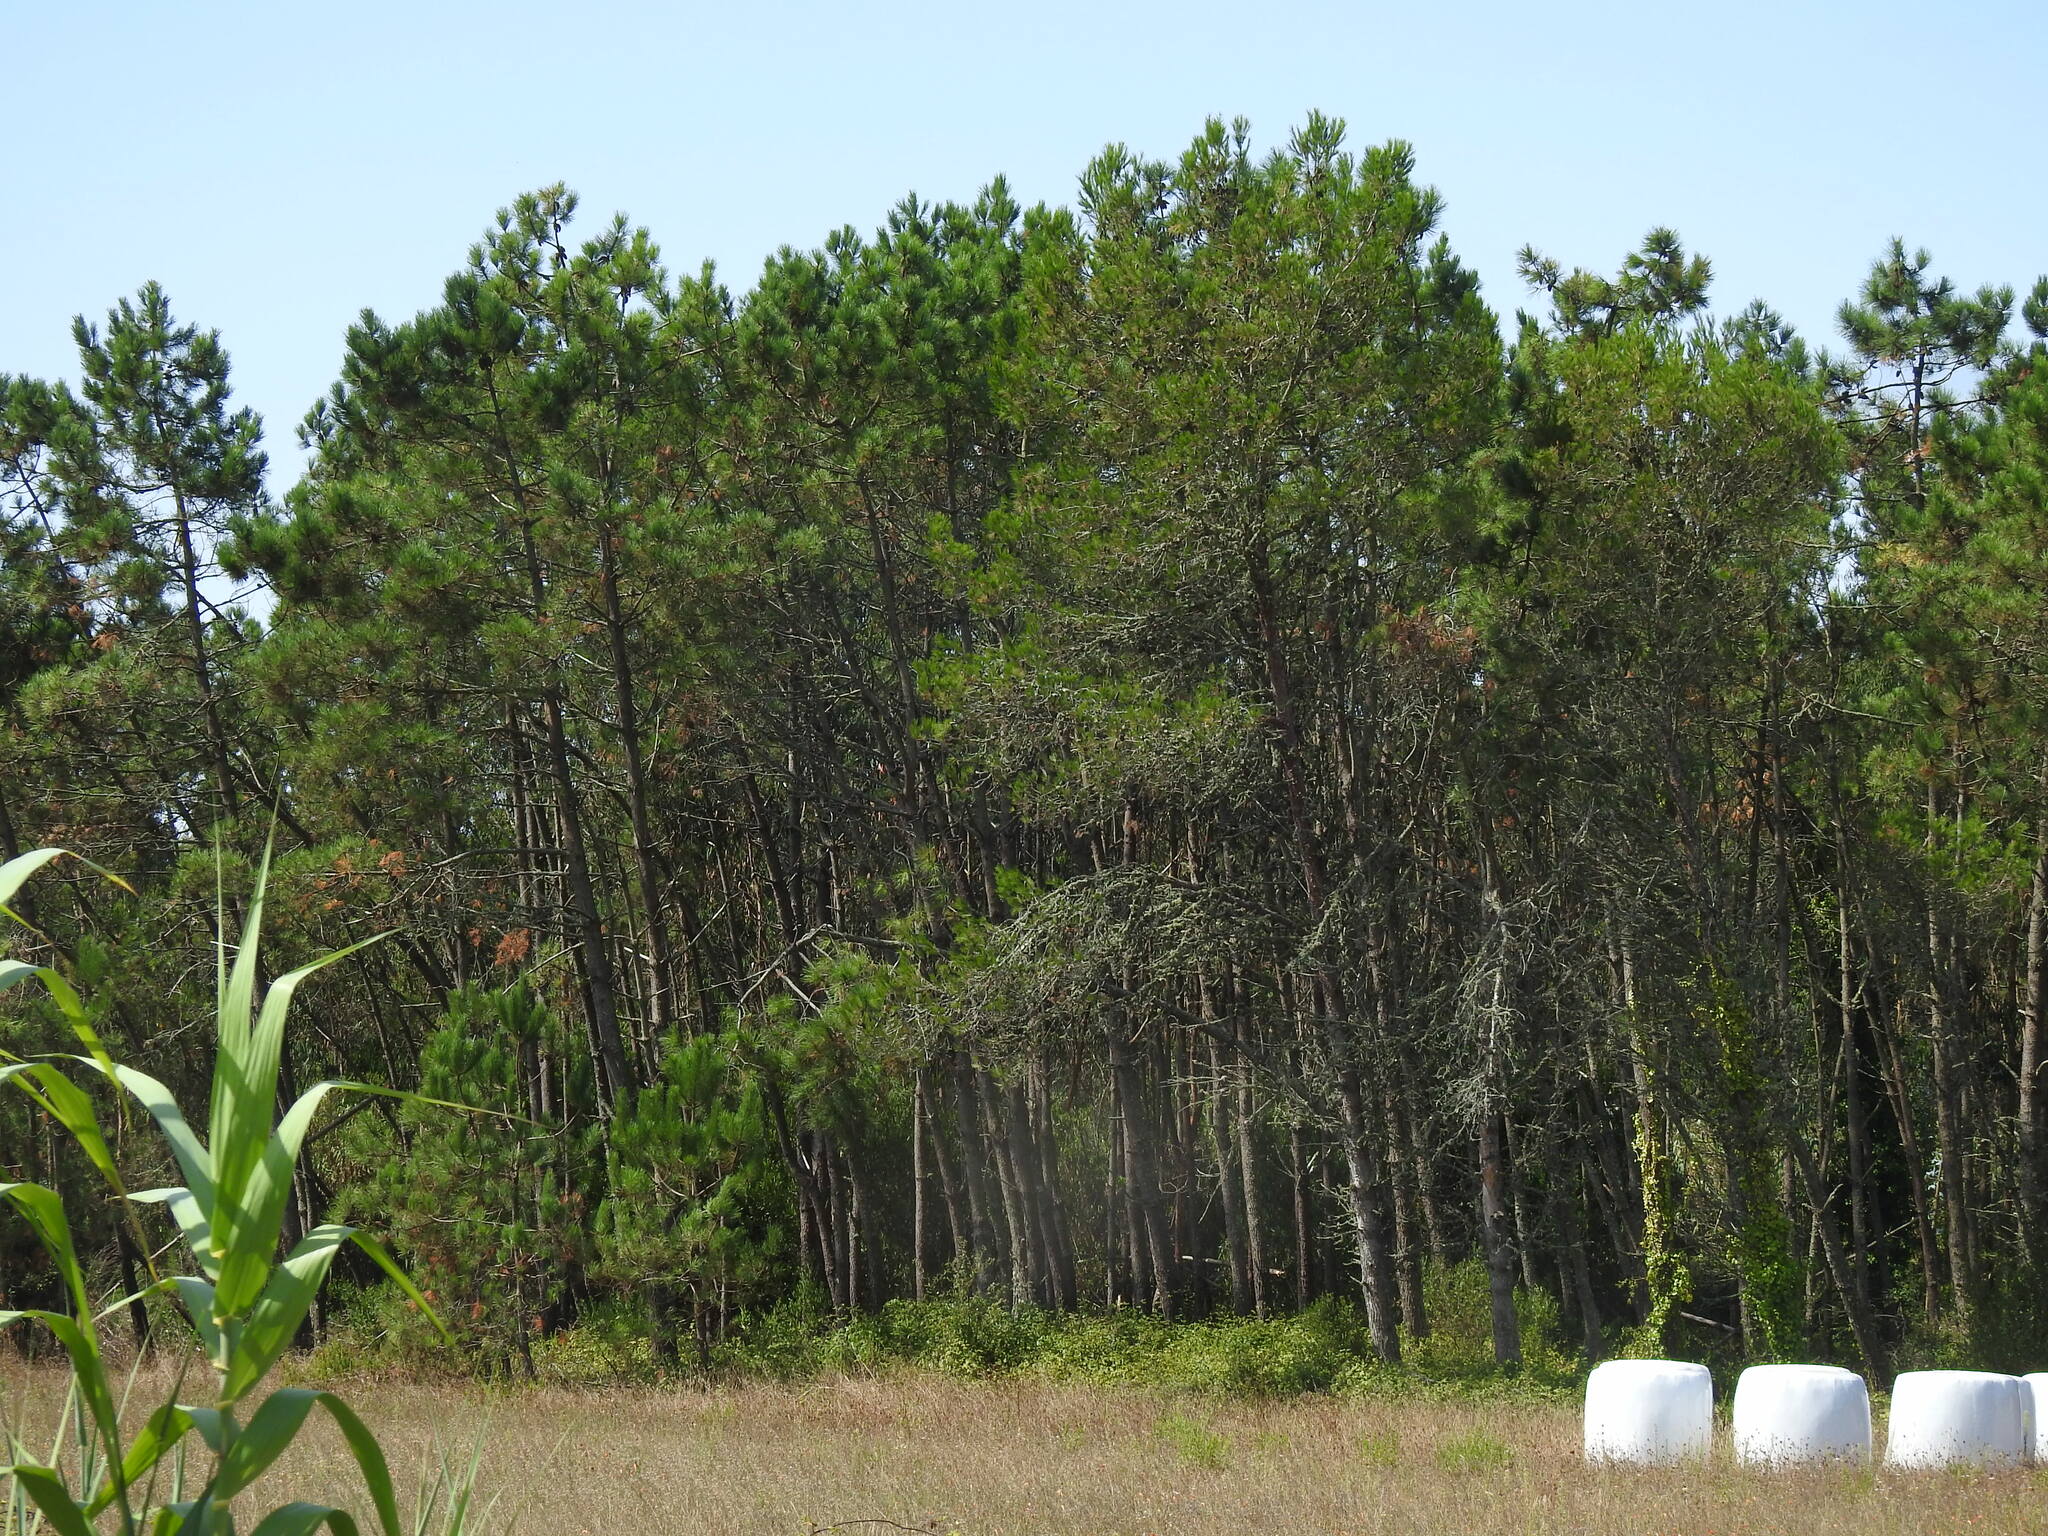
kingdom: Plantae
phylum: Tracheophyta
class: Pinopsida
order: Pinales
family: Pinaceae
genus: Pinus
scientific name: Pinus pinaster
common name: Maritime pine
